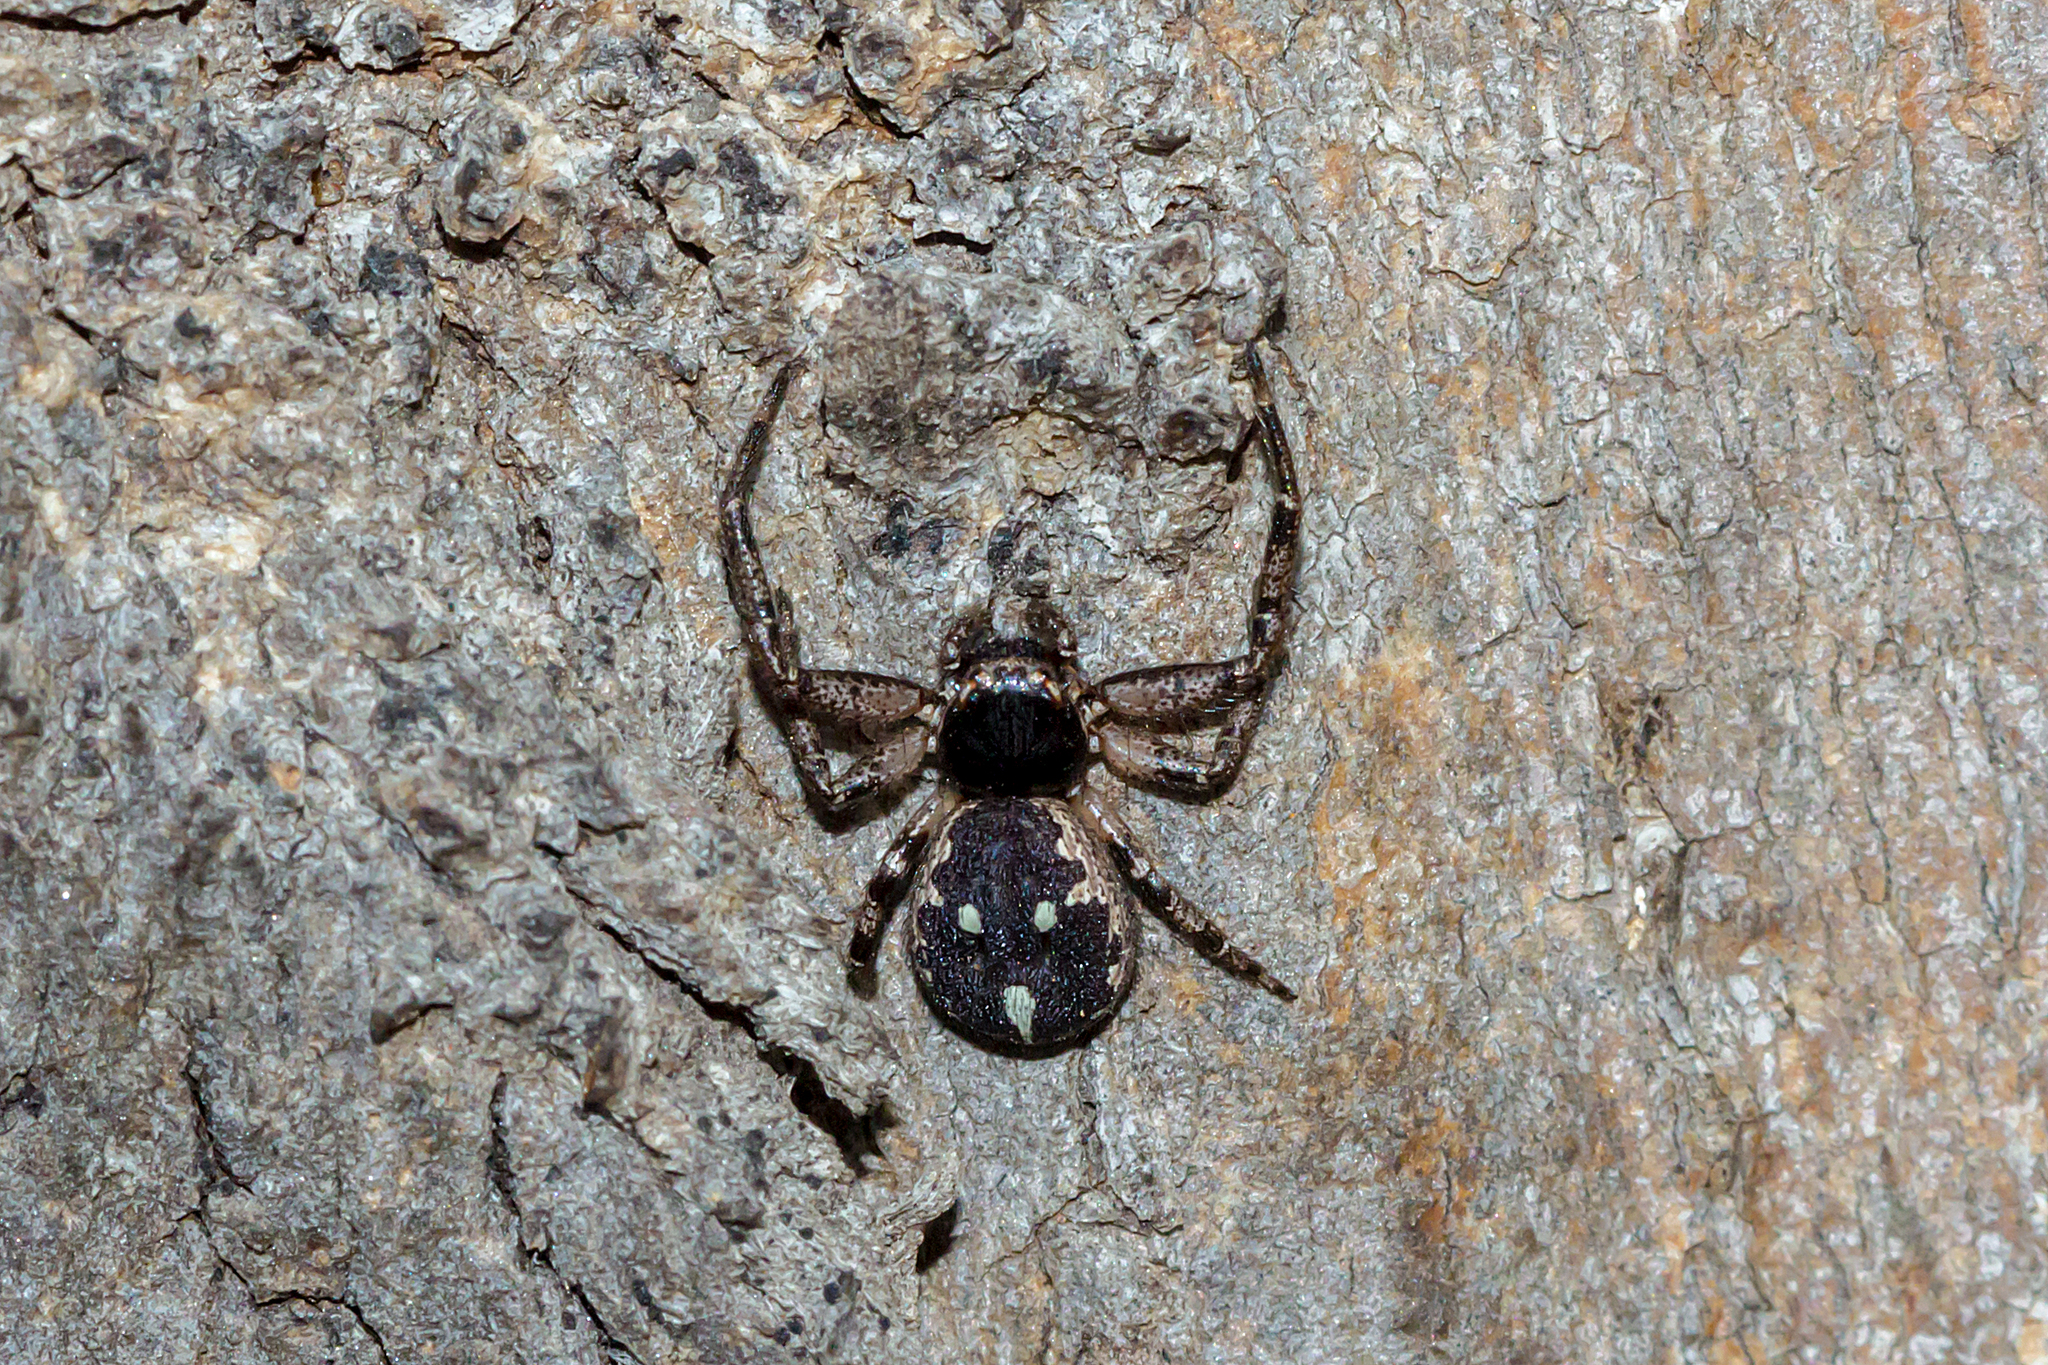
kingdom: Animalia
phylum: Arthropoda
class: Arachnida
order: Araneae
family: Thomisidae
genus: Tharpyna
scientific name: Tharpyna campestrata
